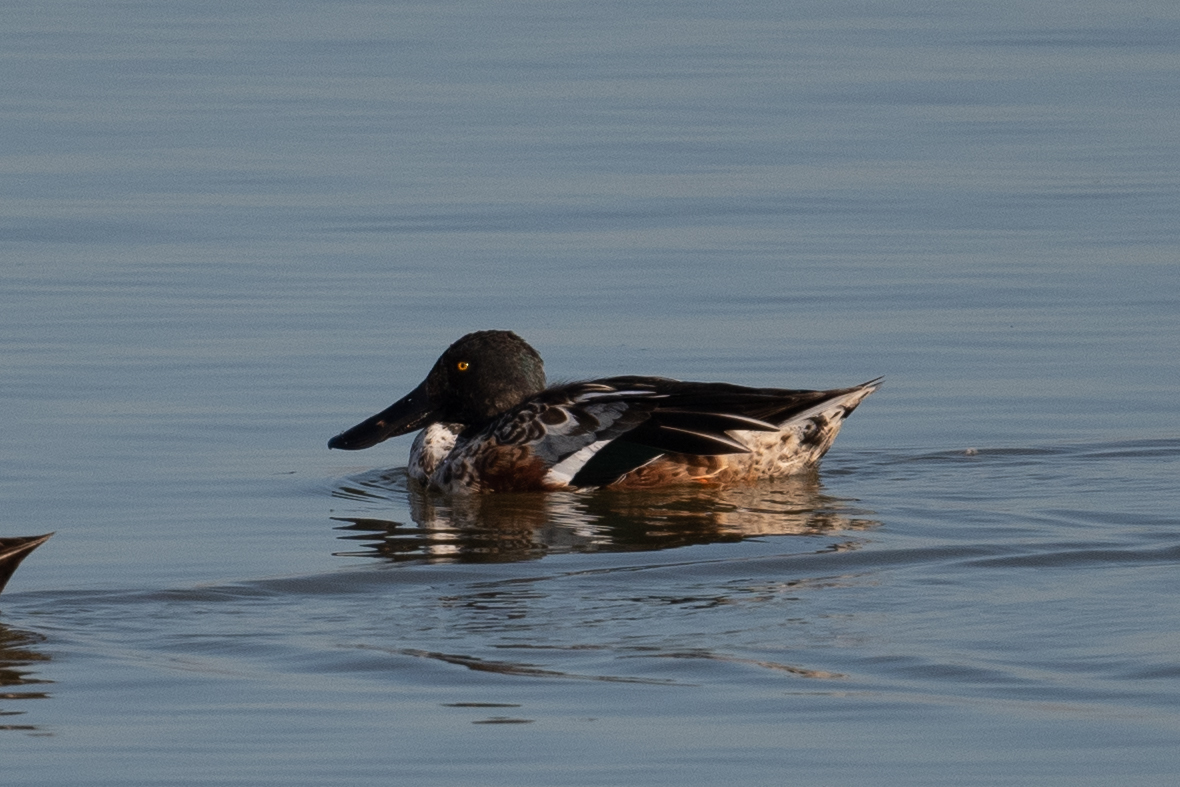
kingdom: Animalia
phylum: Chordata
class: Aves
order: Anseriformes
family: Anatidae
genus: Spatula
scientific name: Spatula clypeata
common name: Northern shoveler
